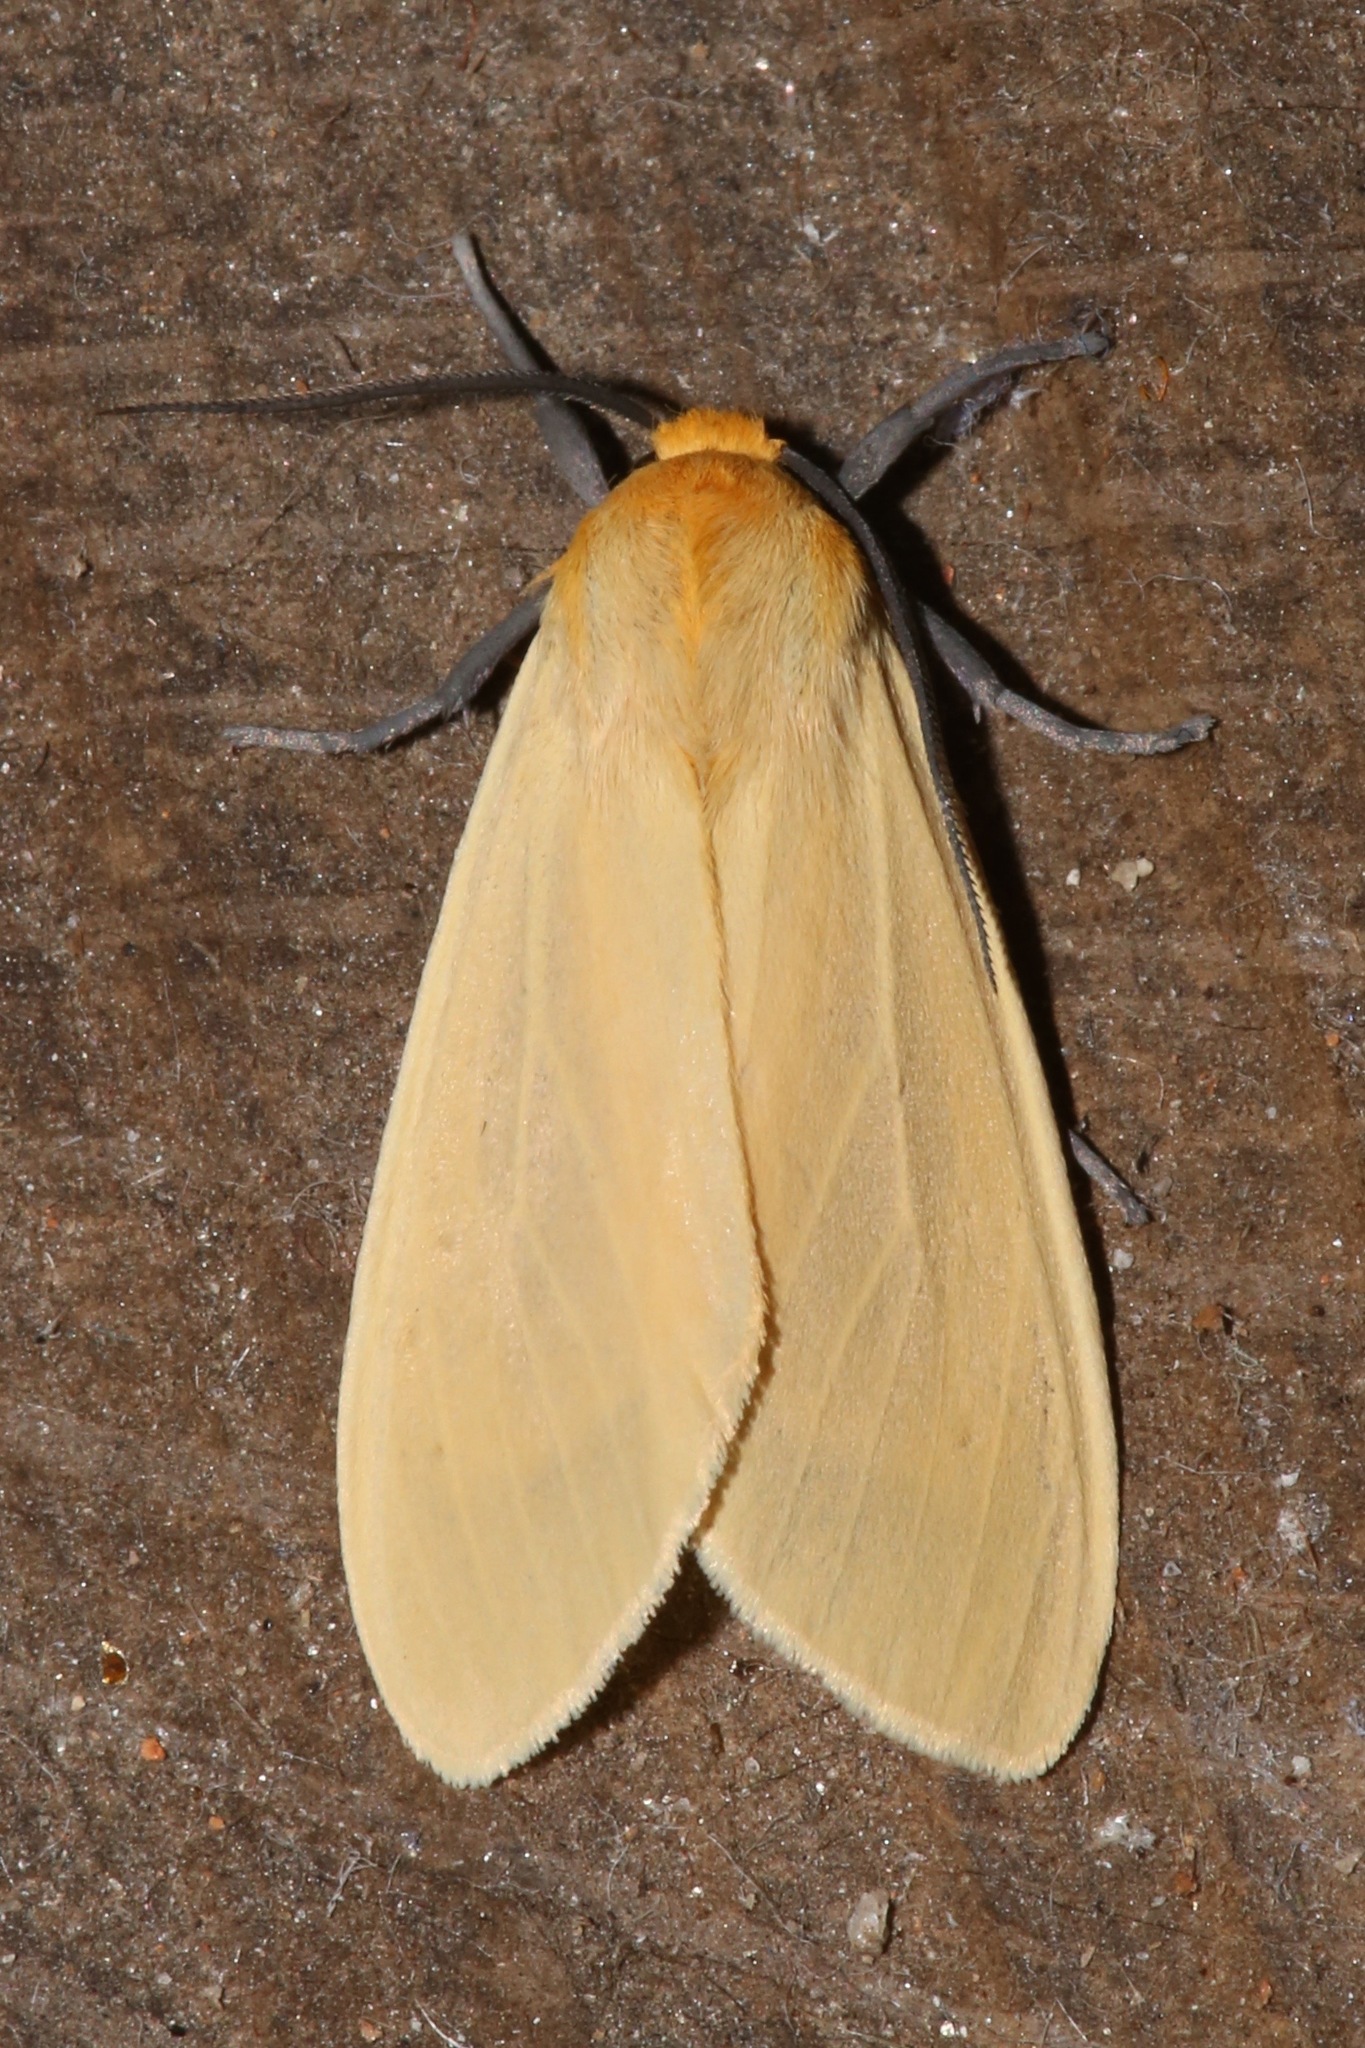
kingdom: Animalia
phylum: Arthropoda
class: Insecta
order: Lepidoptera
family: Erebidae
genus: Pareuchaetes
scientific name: Pareuchaetes insulata
